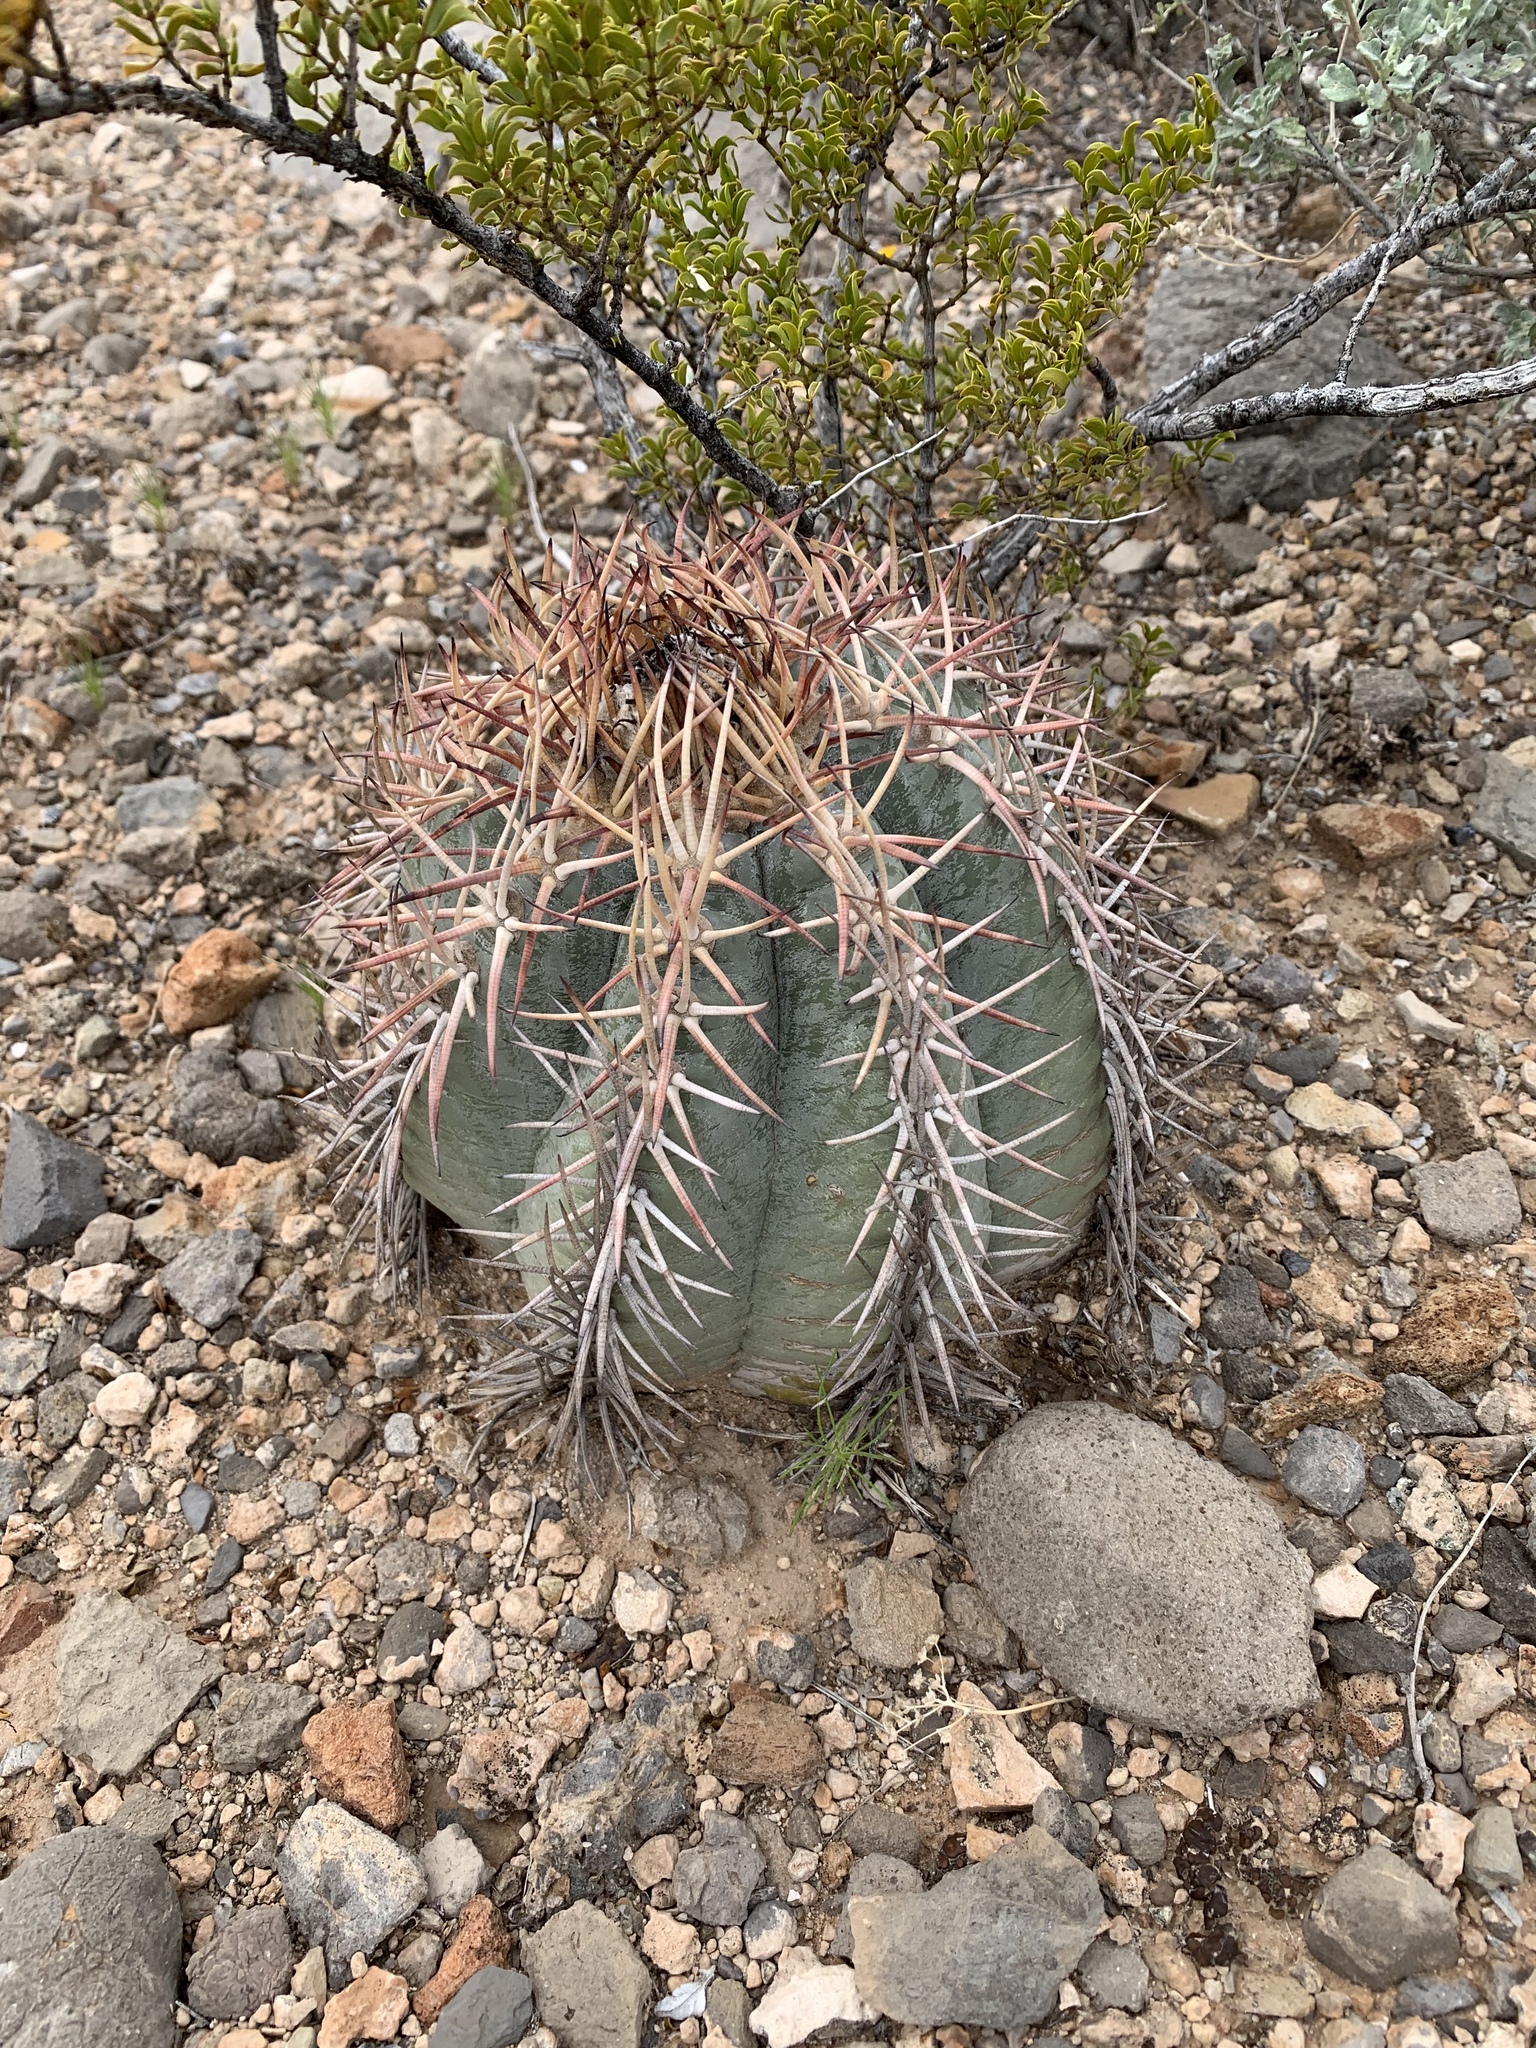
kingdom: Plantae
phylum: Tracheophyta
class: Magnoliopsida
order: Caryophyllales
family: Cactaceae
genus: Echinocactus
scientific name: Echinocactus horizonthalonius
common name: Devilshead
